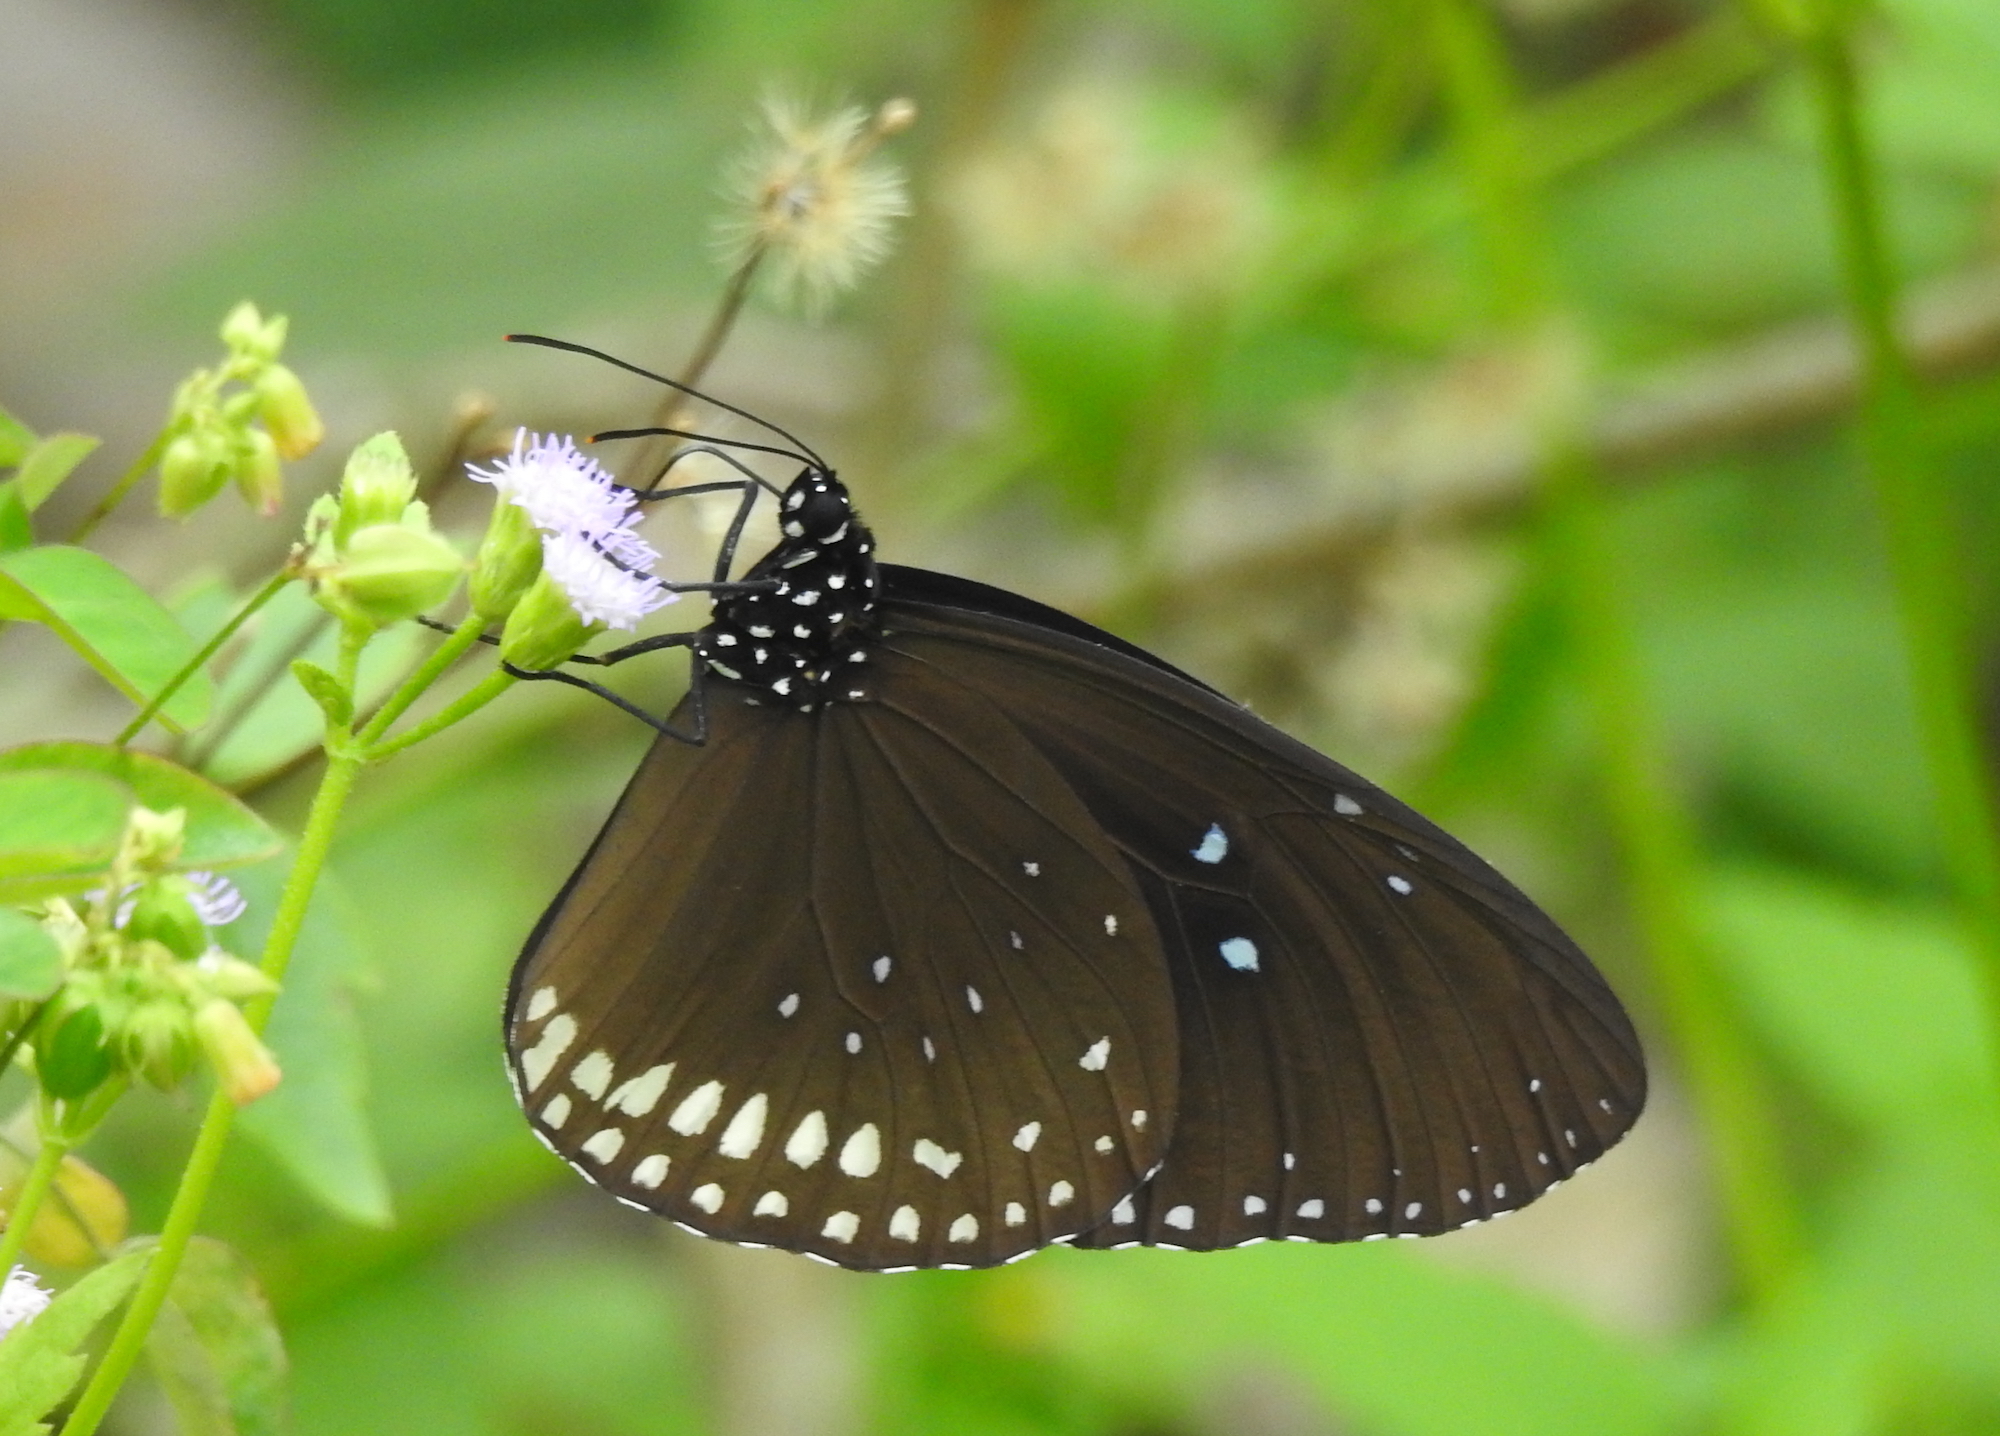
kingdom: Animalia
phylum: Arthropoda
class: Insecta
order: Lepidoptera
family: Nymphalidae
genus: Euploea
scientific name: Euploea sylvester
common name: Double-branded crow butterfly
